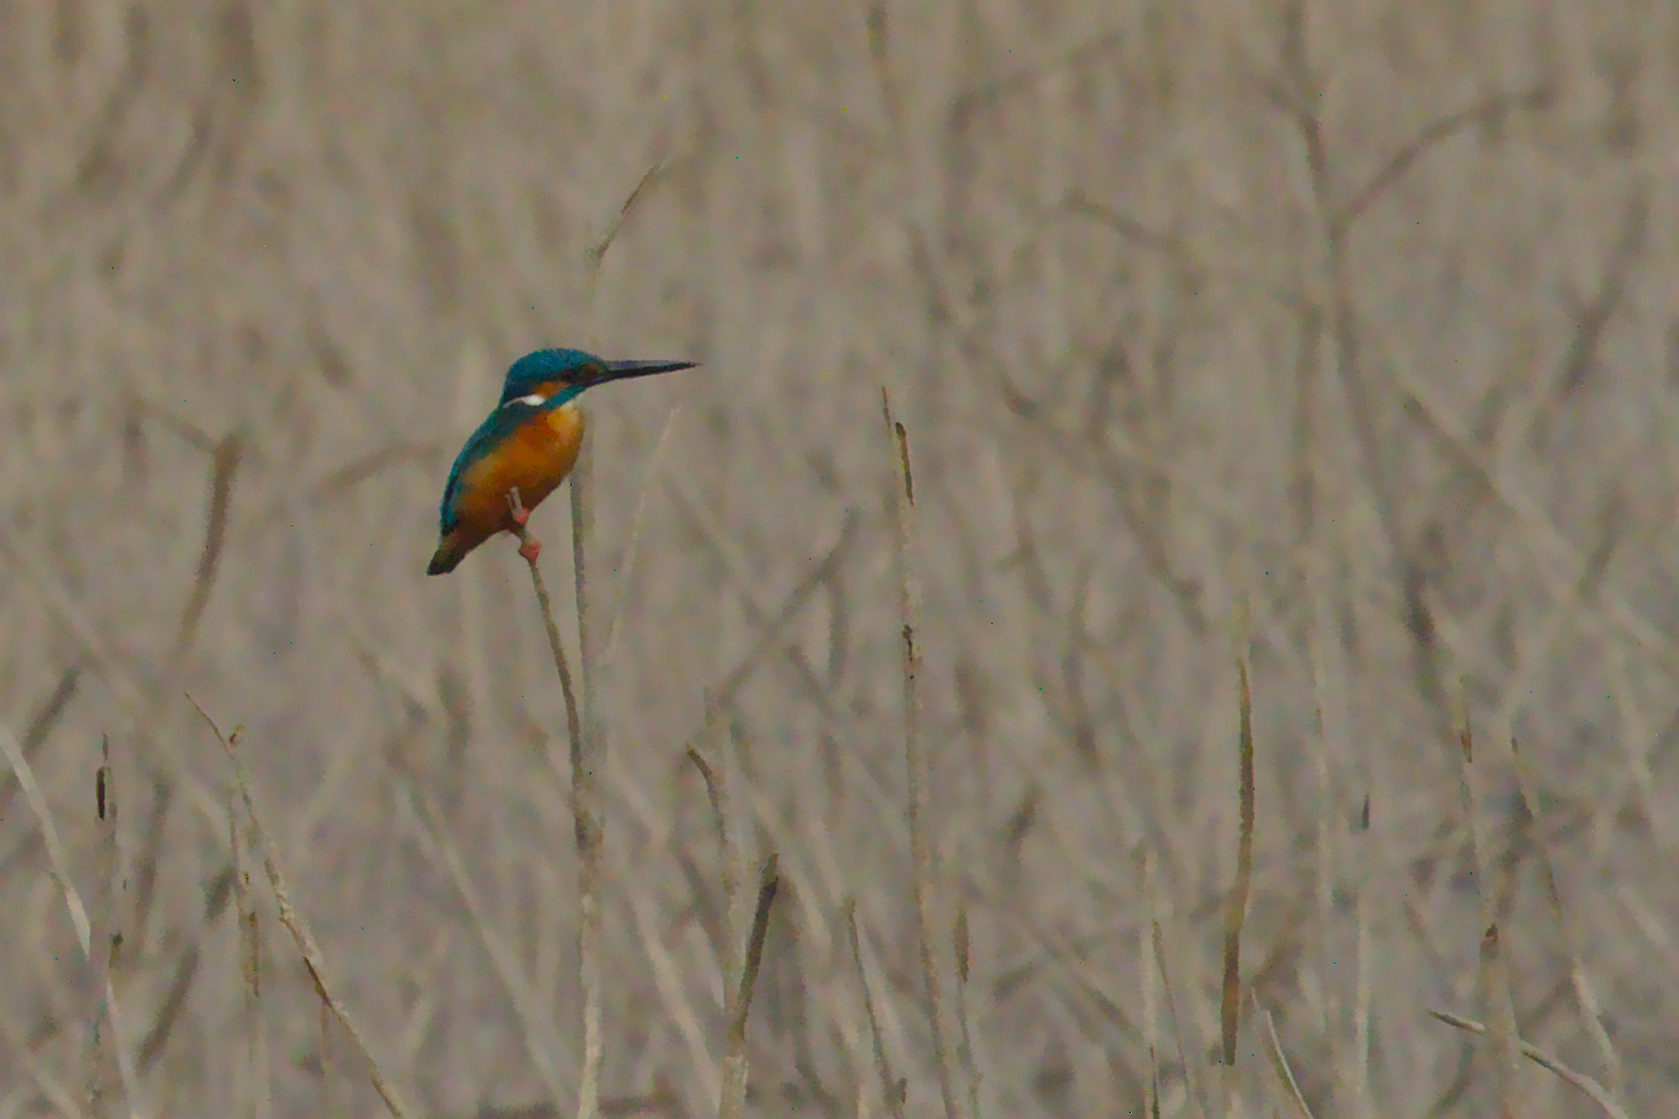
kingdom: Animalia
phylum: Chordata
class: Aves
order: Coraciiformes
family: Alcedinidae
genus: Alcedo
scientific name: Alcedo atthis
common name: Common kingfisher
